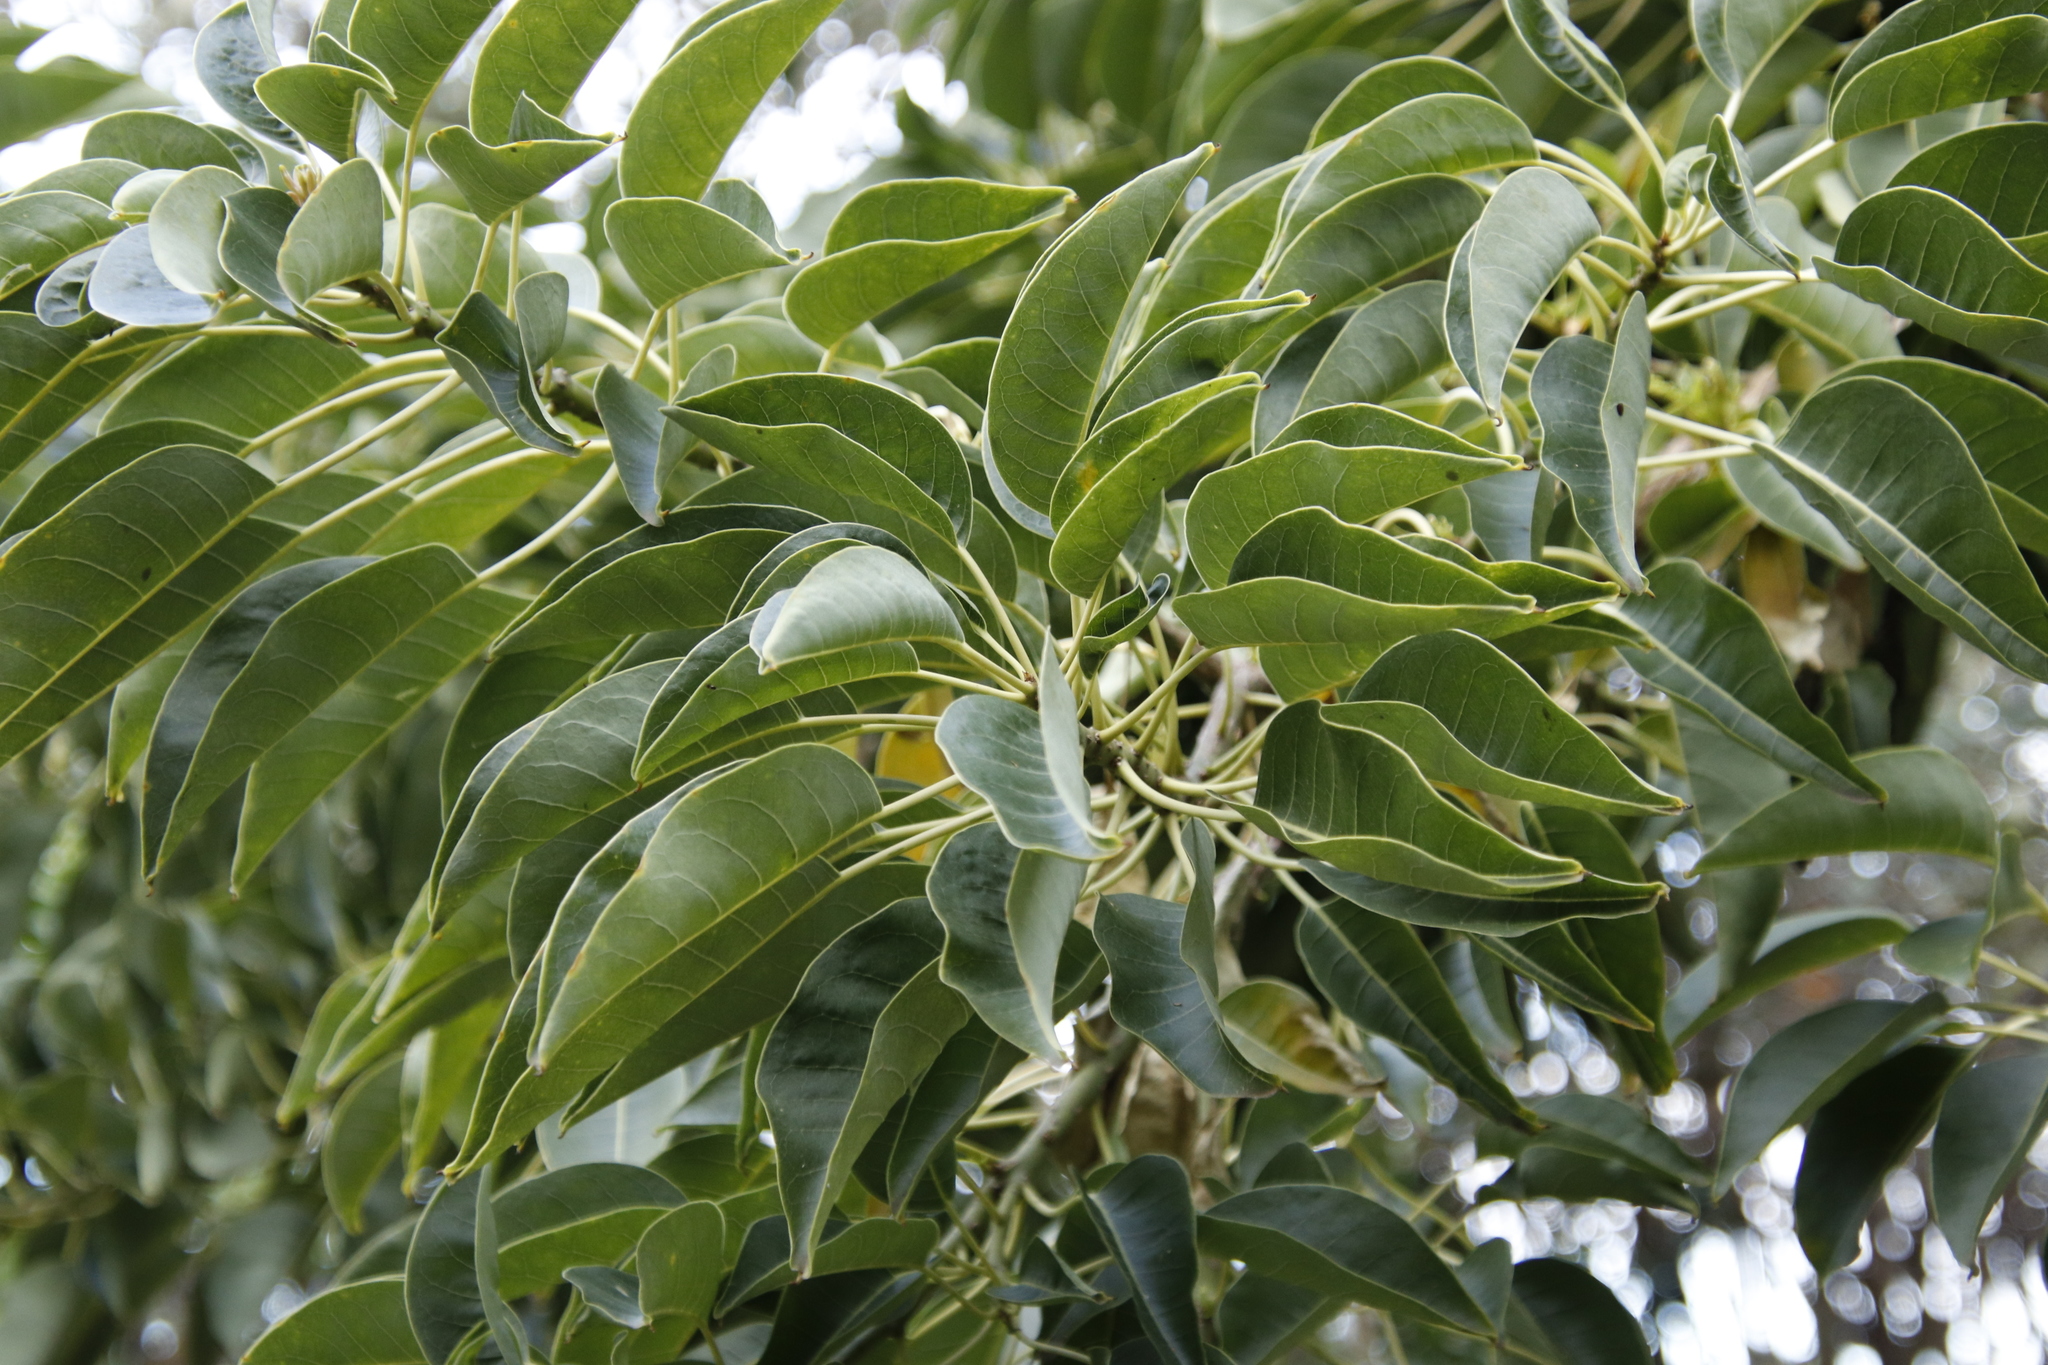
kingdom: Plantae
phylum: Tracheophyta
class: Magnoliopsida
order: Caryophyllales
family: Phytolaccaceae
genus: Phytolacca
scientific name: Phytolacca dioica
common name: Pokeweed
